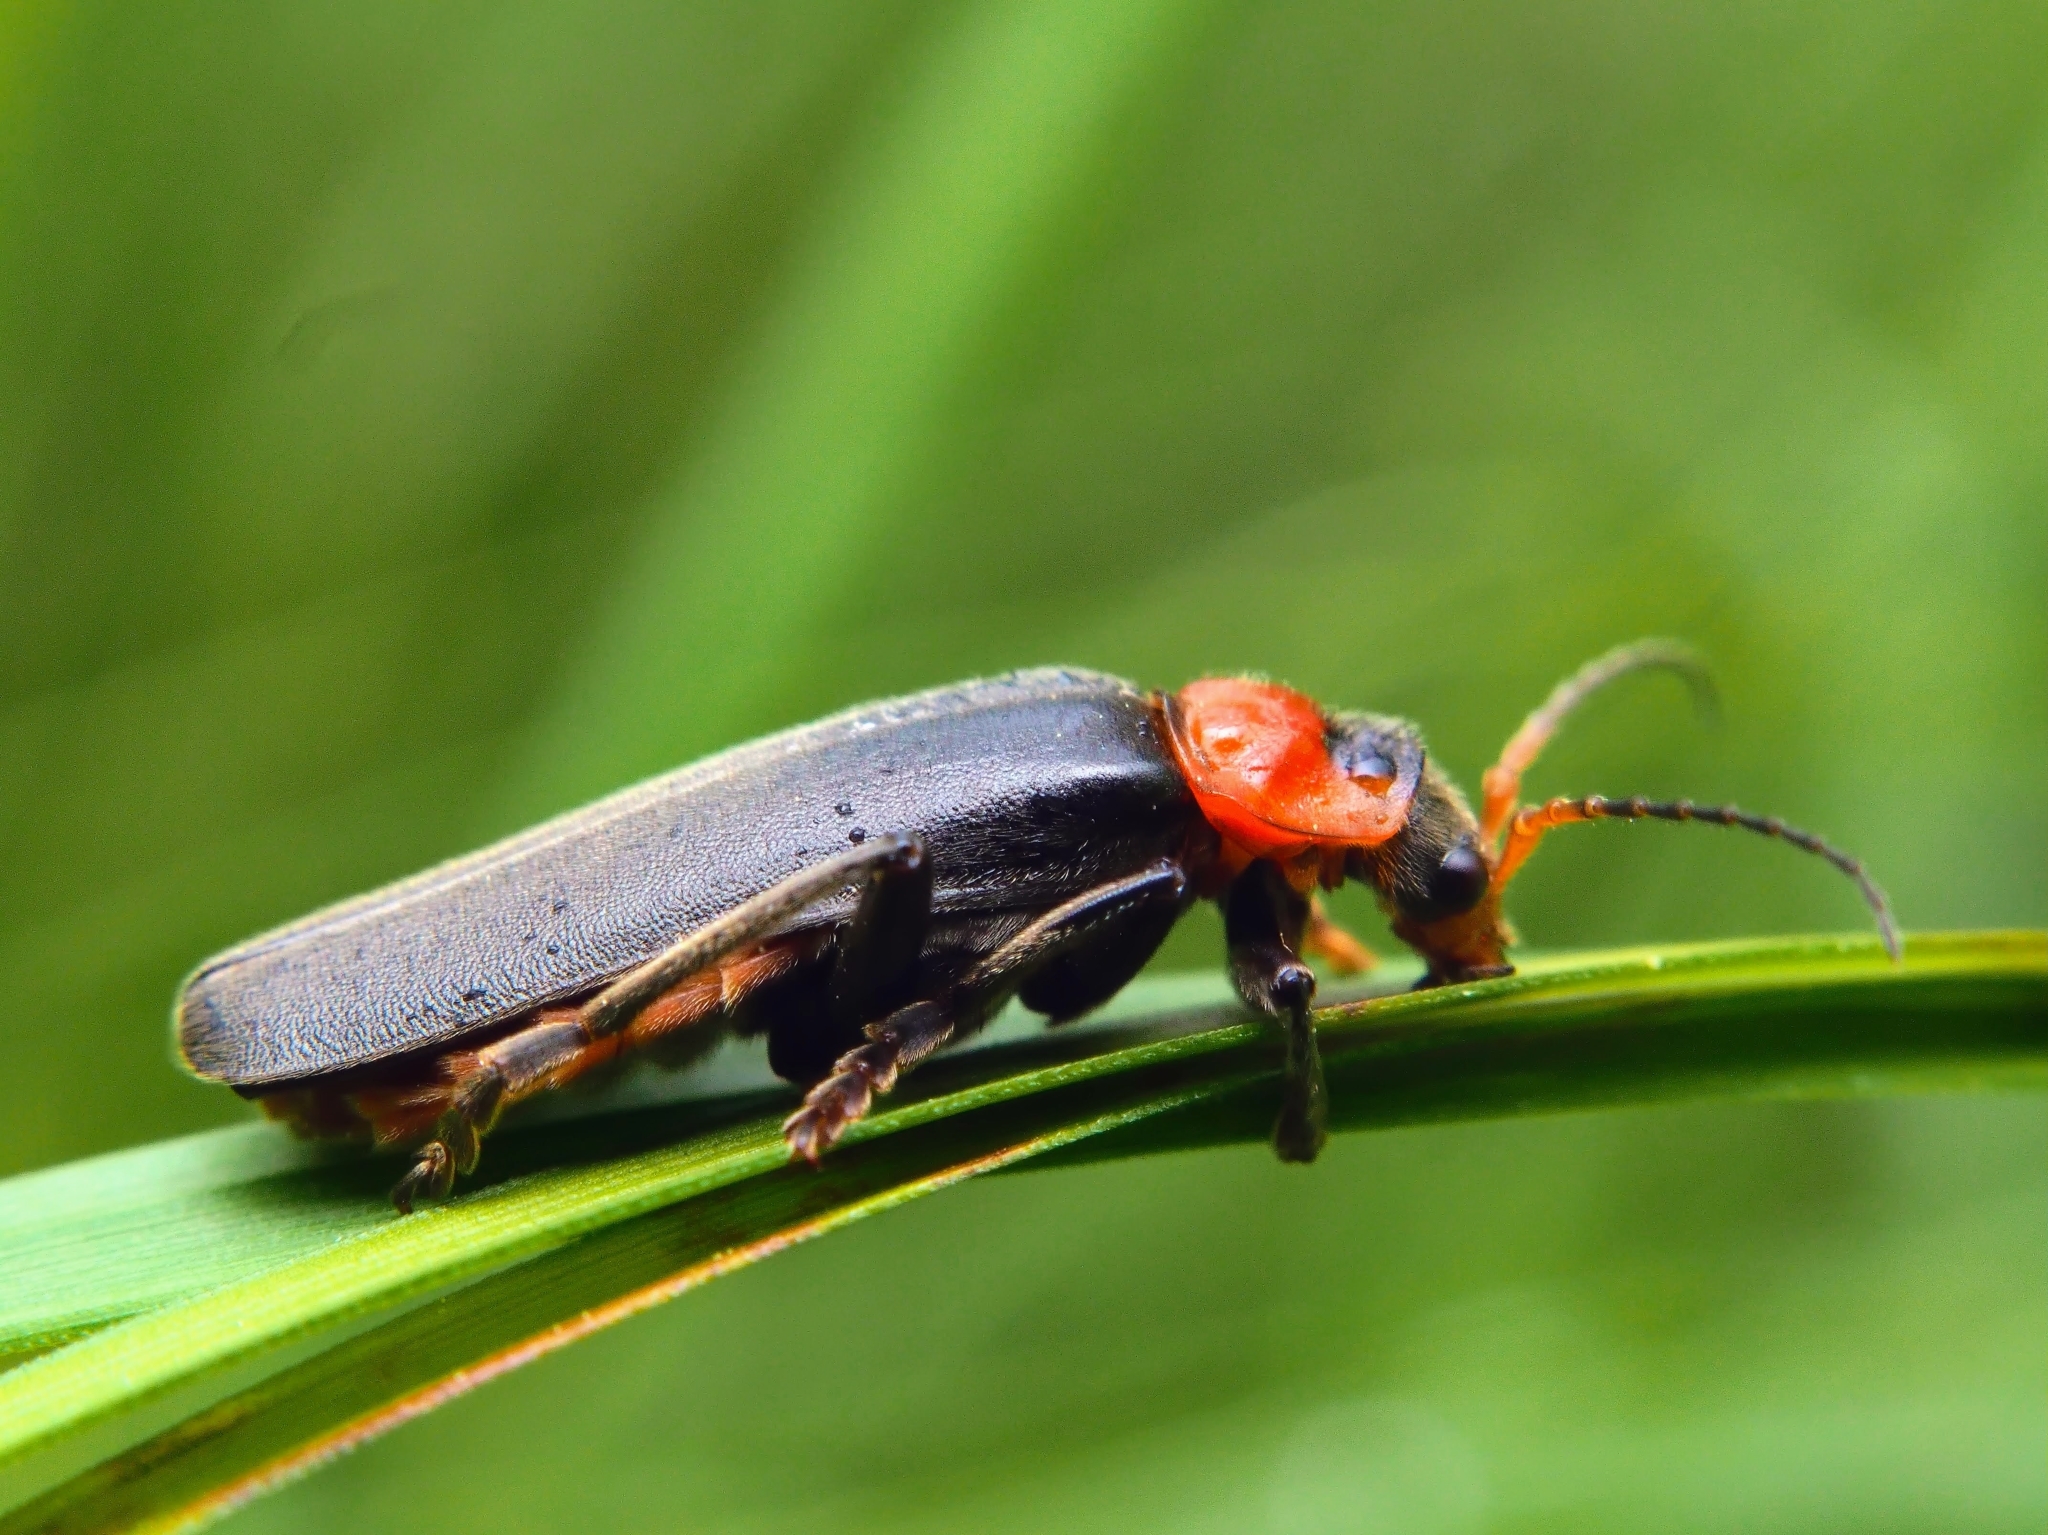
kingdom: Animalia
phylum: Arthropoda
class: Insecta
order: Coleoptera
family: Cantharidae
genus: Cantharis
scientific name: Cantharis fusca
